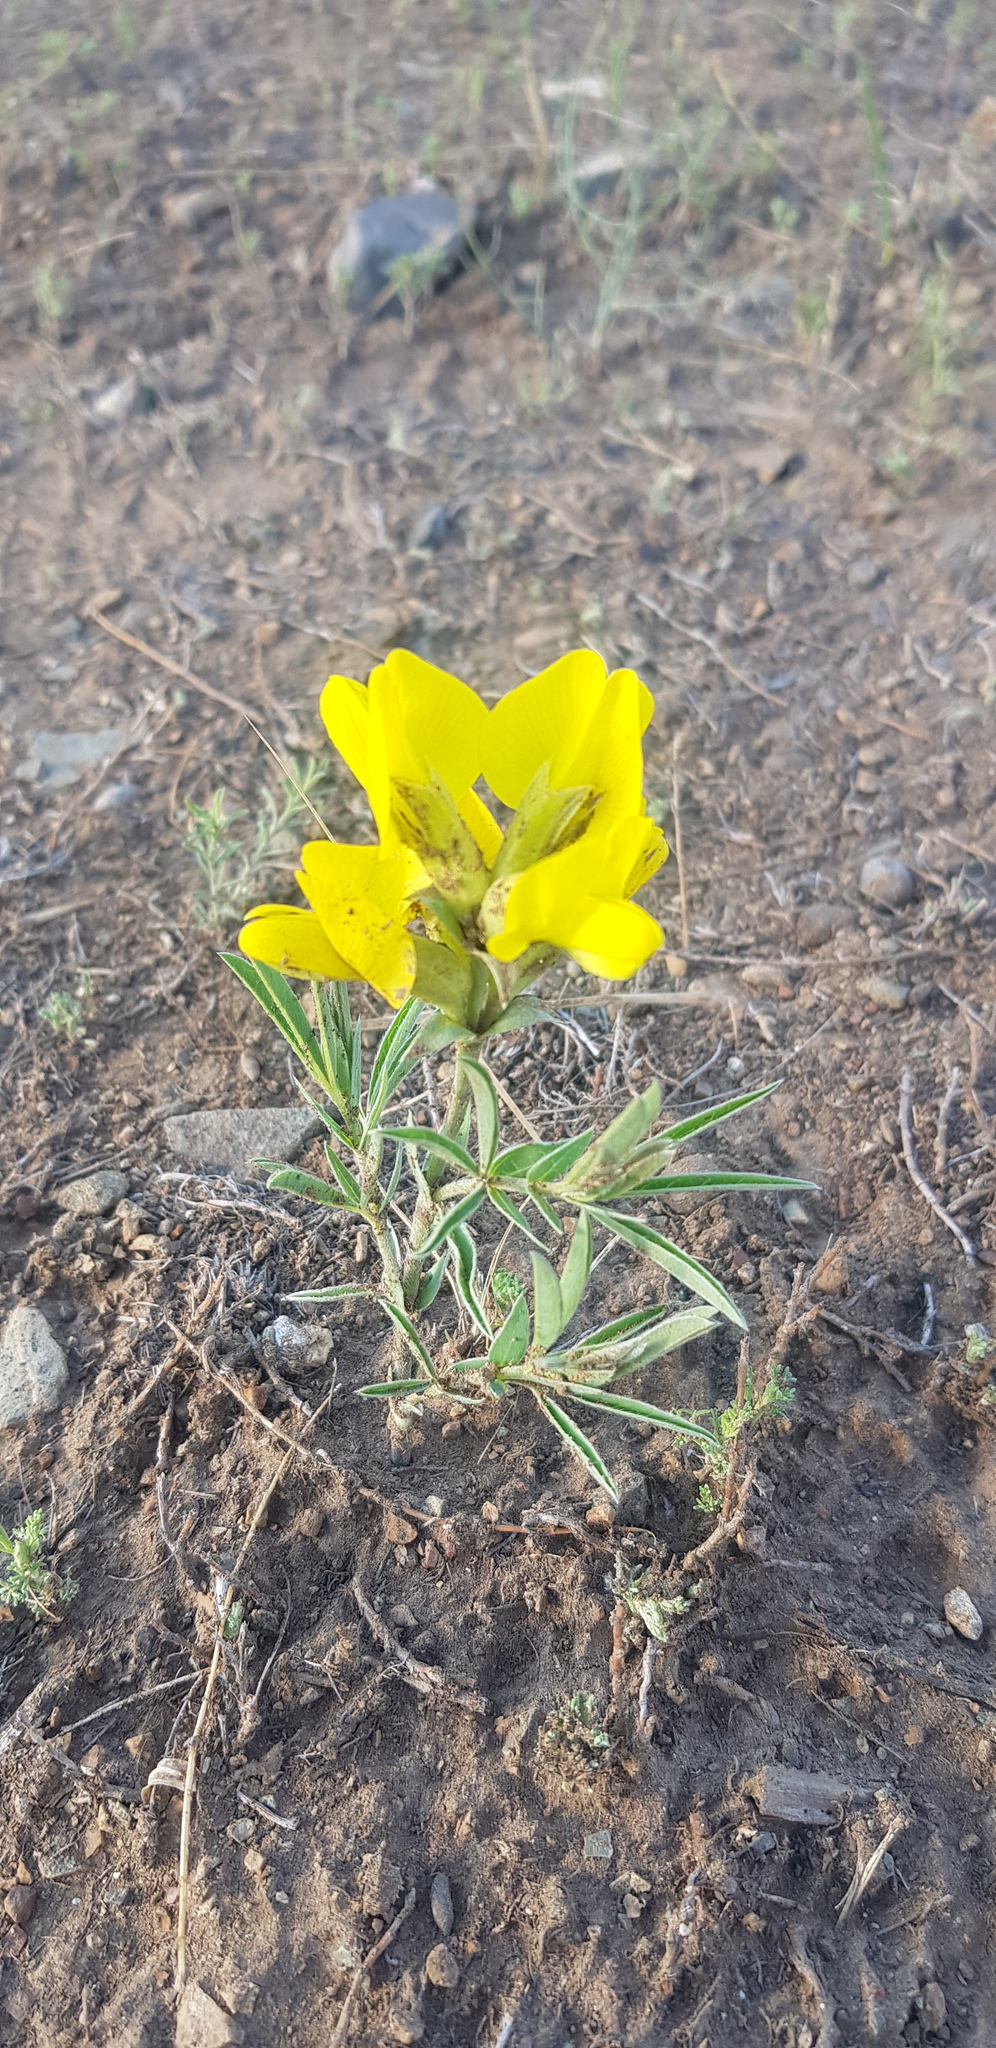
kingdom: Plantae
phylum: Tracheophyta
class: Magnoliopsida
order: Fabales
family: Fabaceae
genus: Thermopsis
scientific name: Thermopsis dahurica
